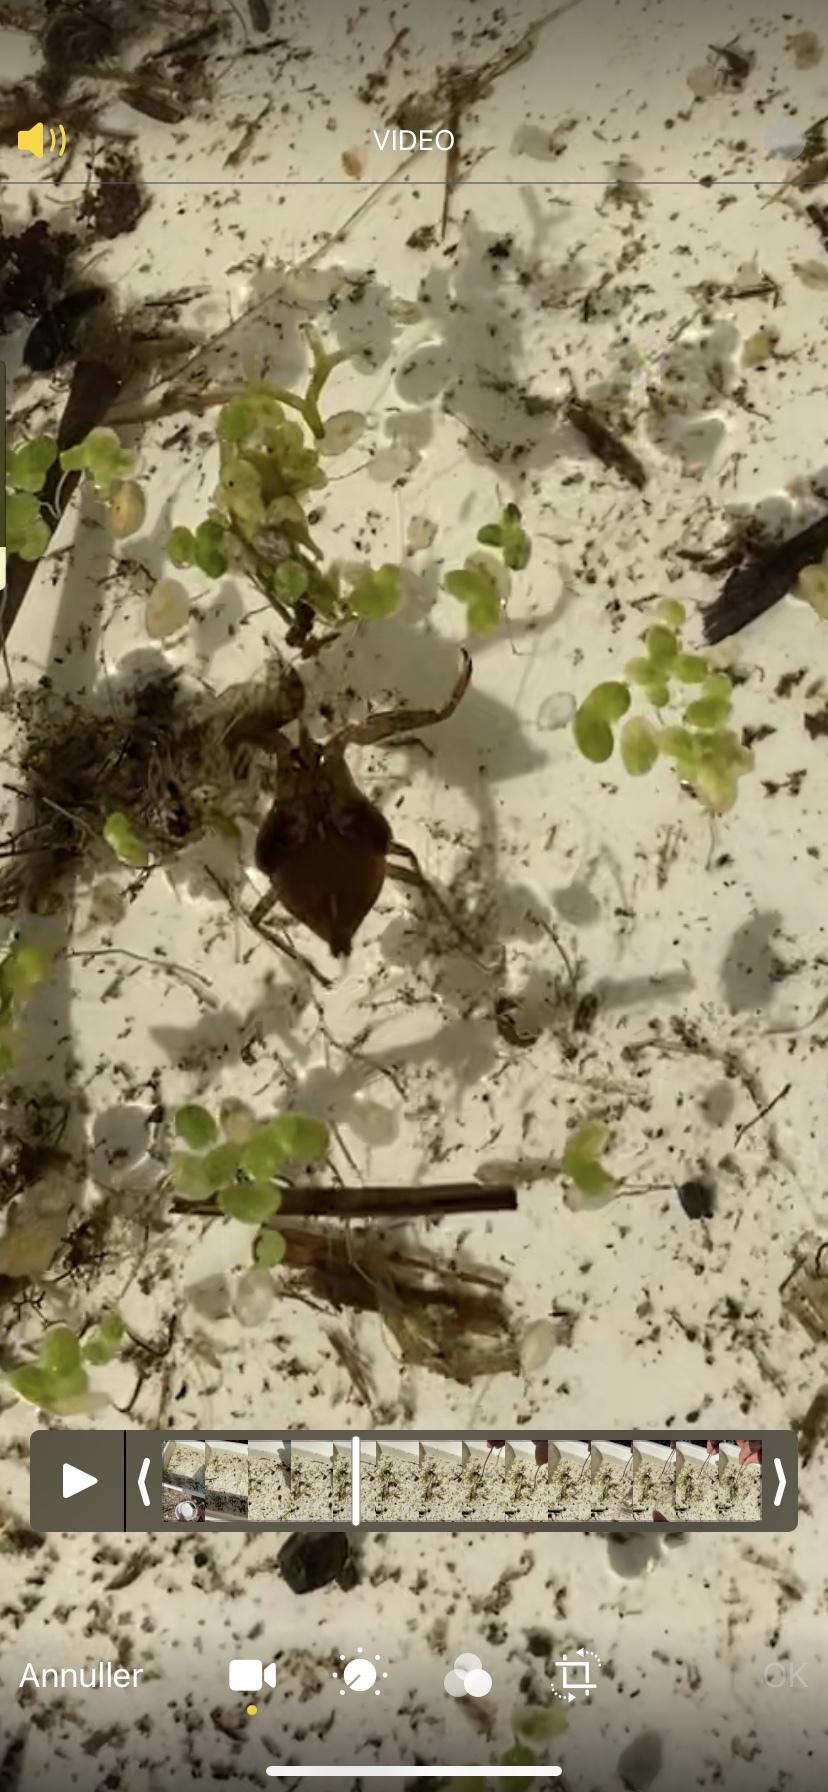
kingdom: Animalia
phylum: Arthropoda
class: Insecta
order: Hemiptera
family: Nepidae
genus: Nepa
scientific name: Nepa cinerea
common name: Water scorpion
